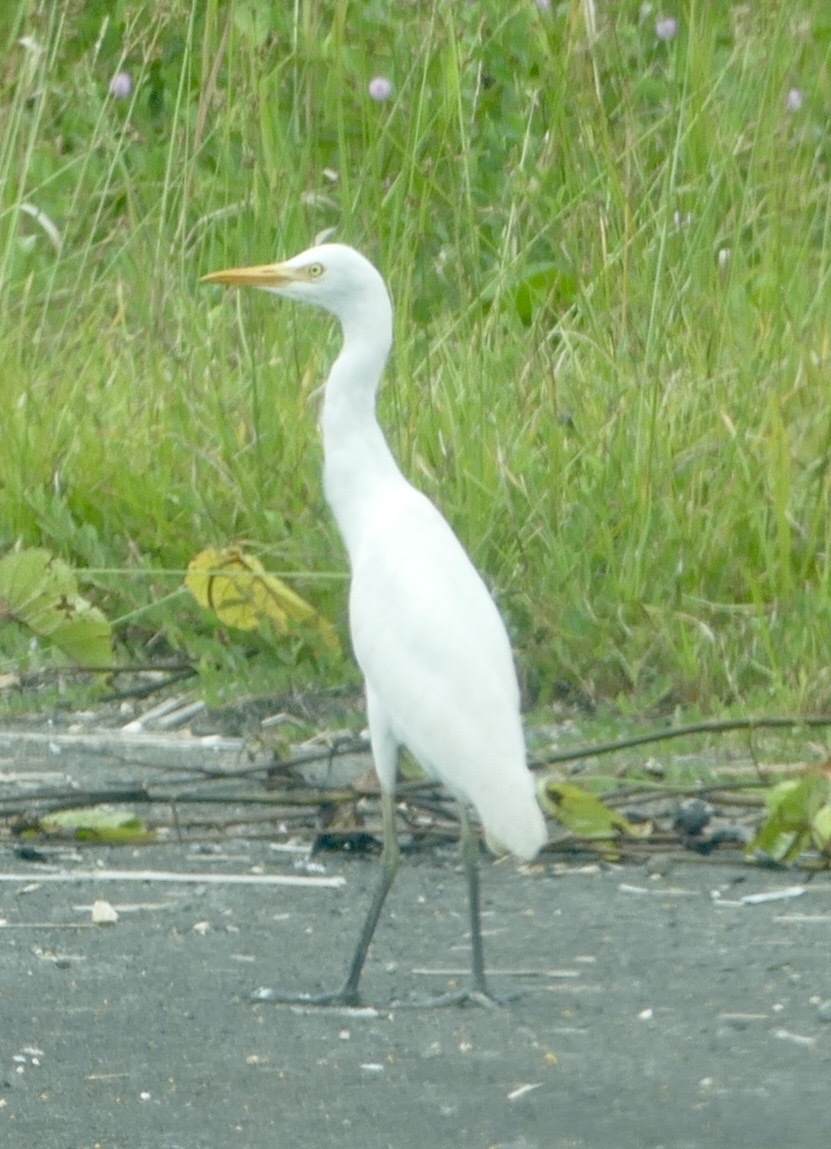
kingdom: Animalia
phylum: Chordata
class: Aves
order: Pelecaniformes
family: Ardeidae
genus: Bubulcus
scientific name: Bubulcus coromandus
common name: Eastern cattle egret
